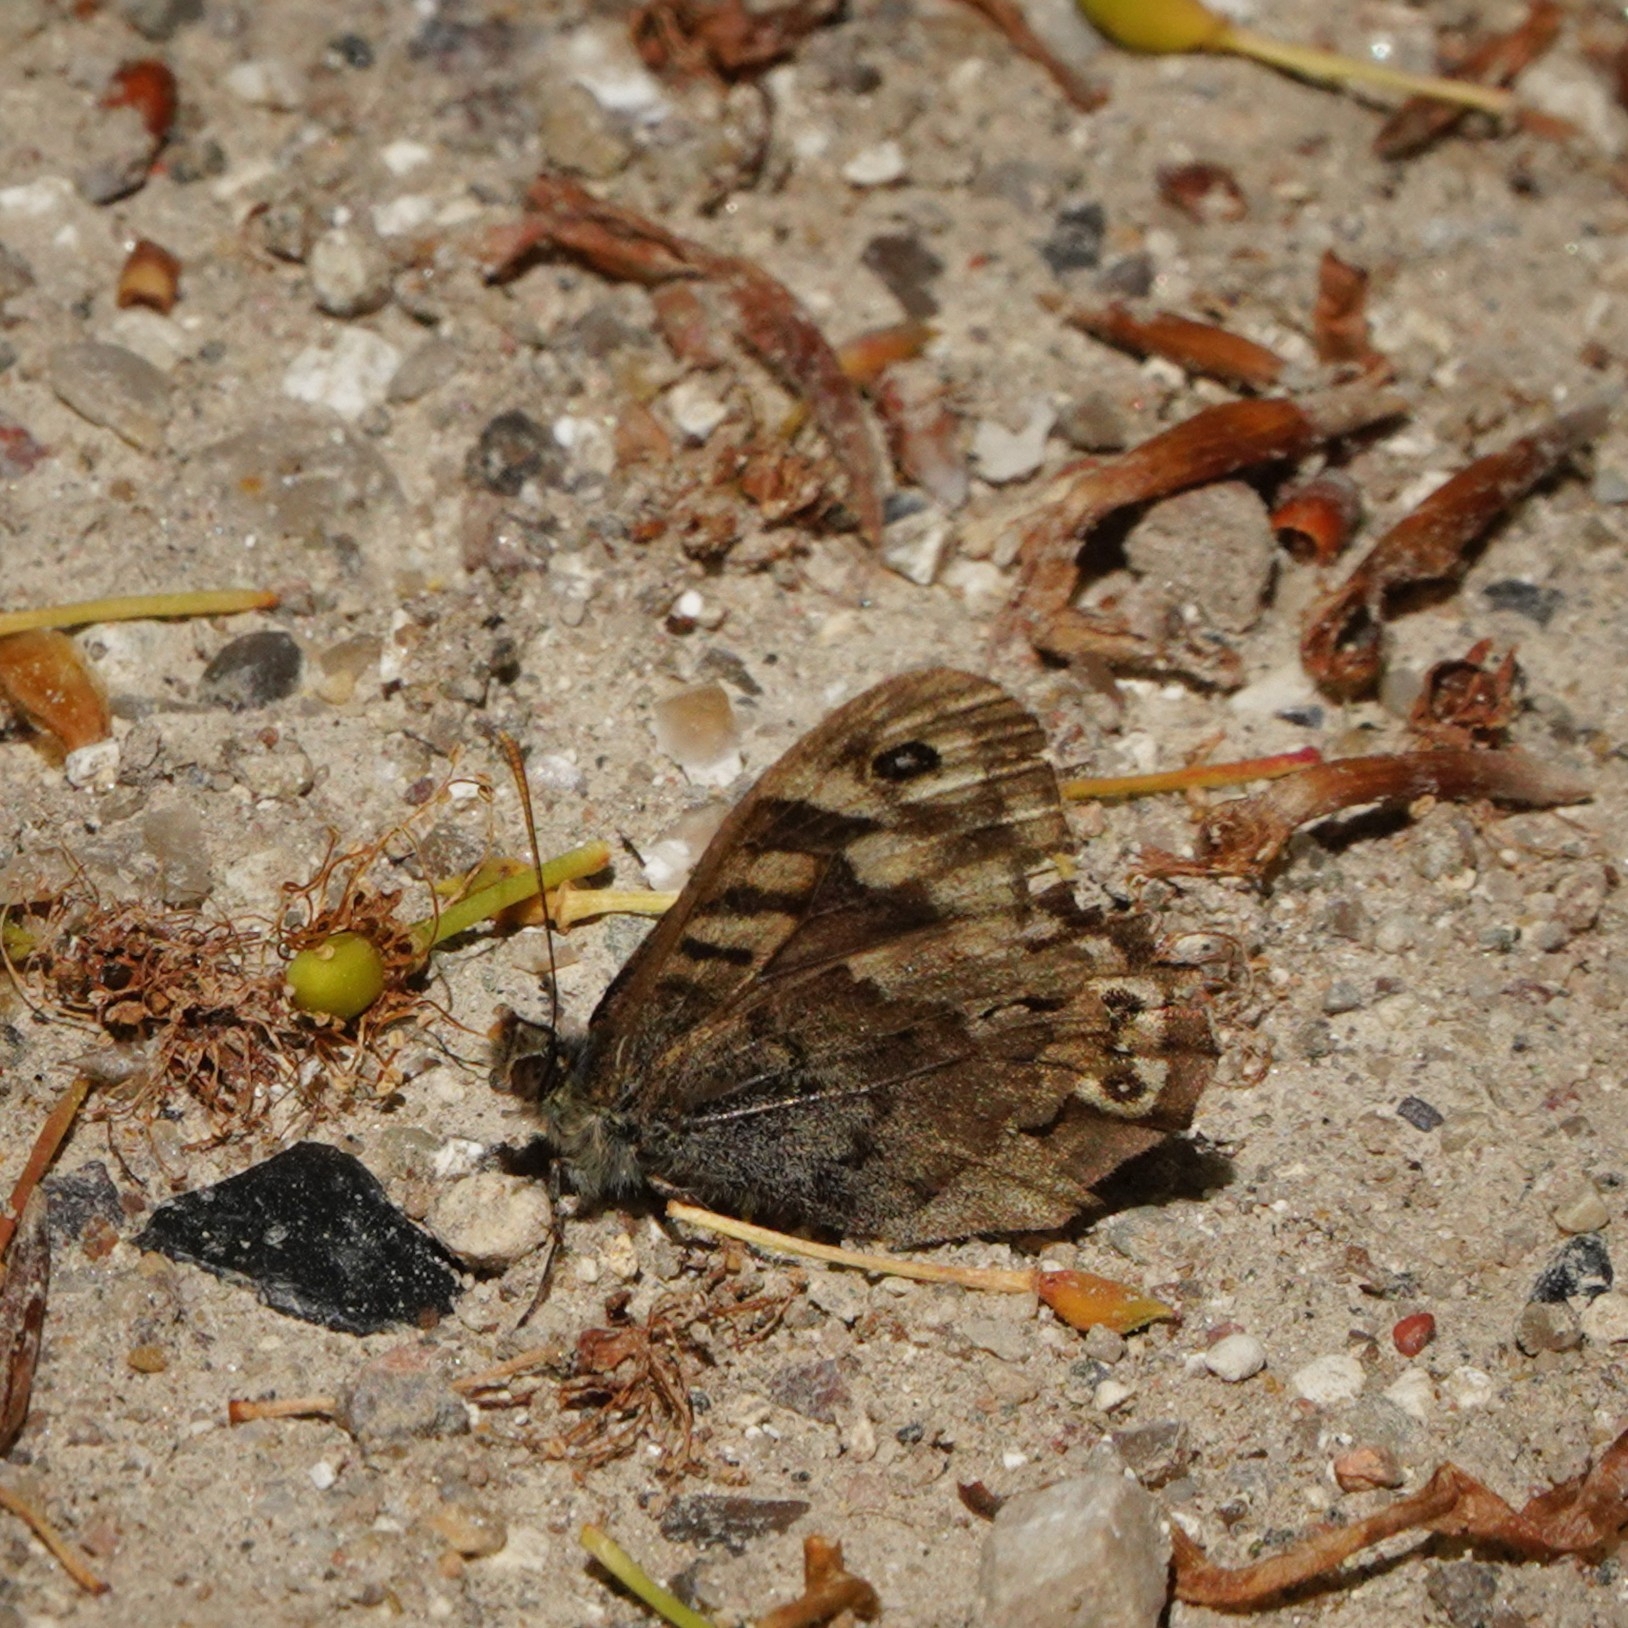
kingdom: Animalia
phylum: Arthropoda
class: Insecta
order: Lepidoptera
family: Nymphalidae
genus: Pararge
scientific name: Pararge aegeria
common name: Speckled wood
